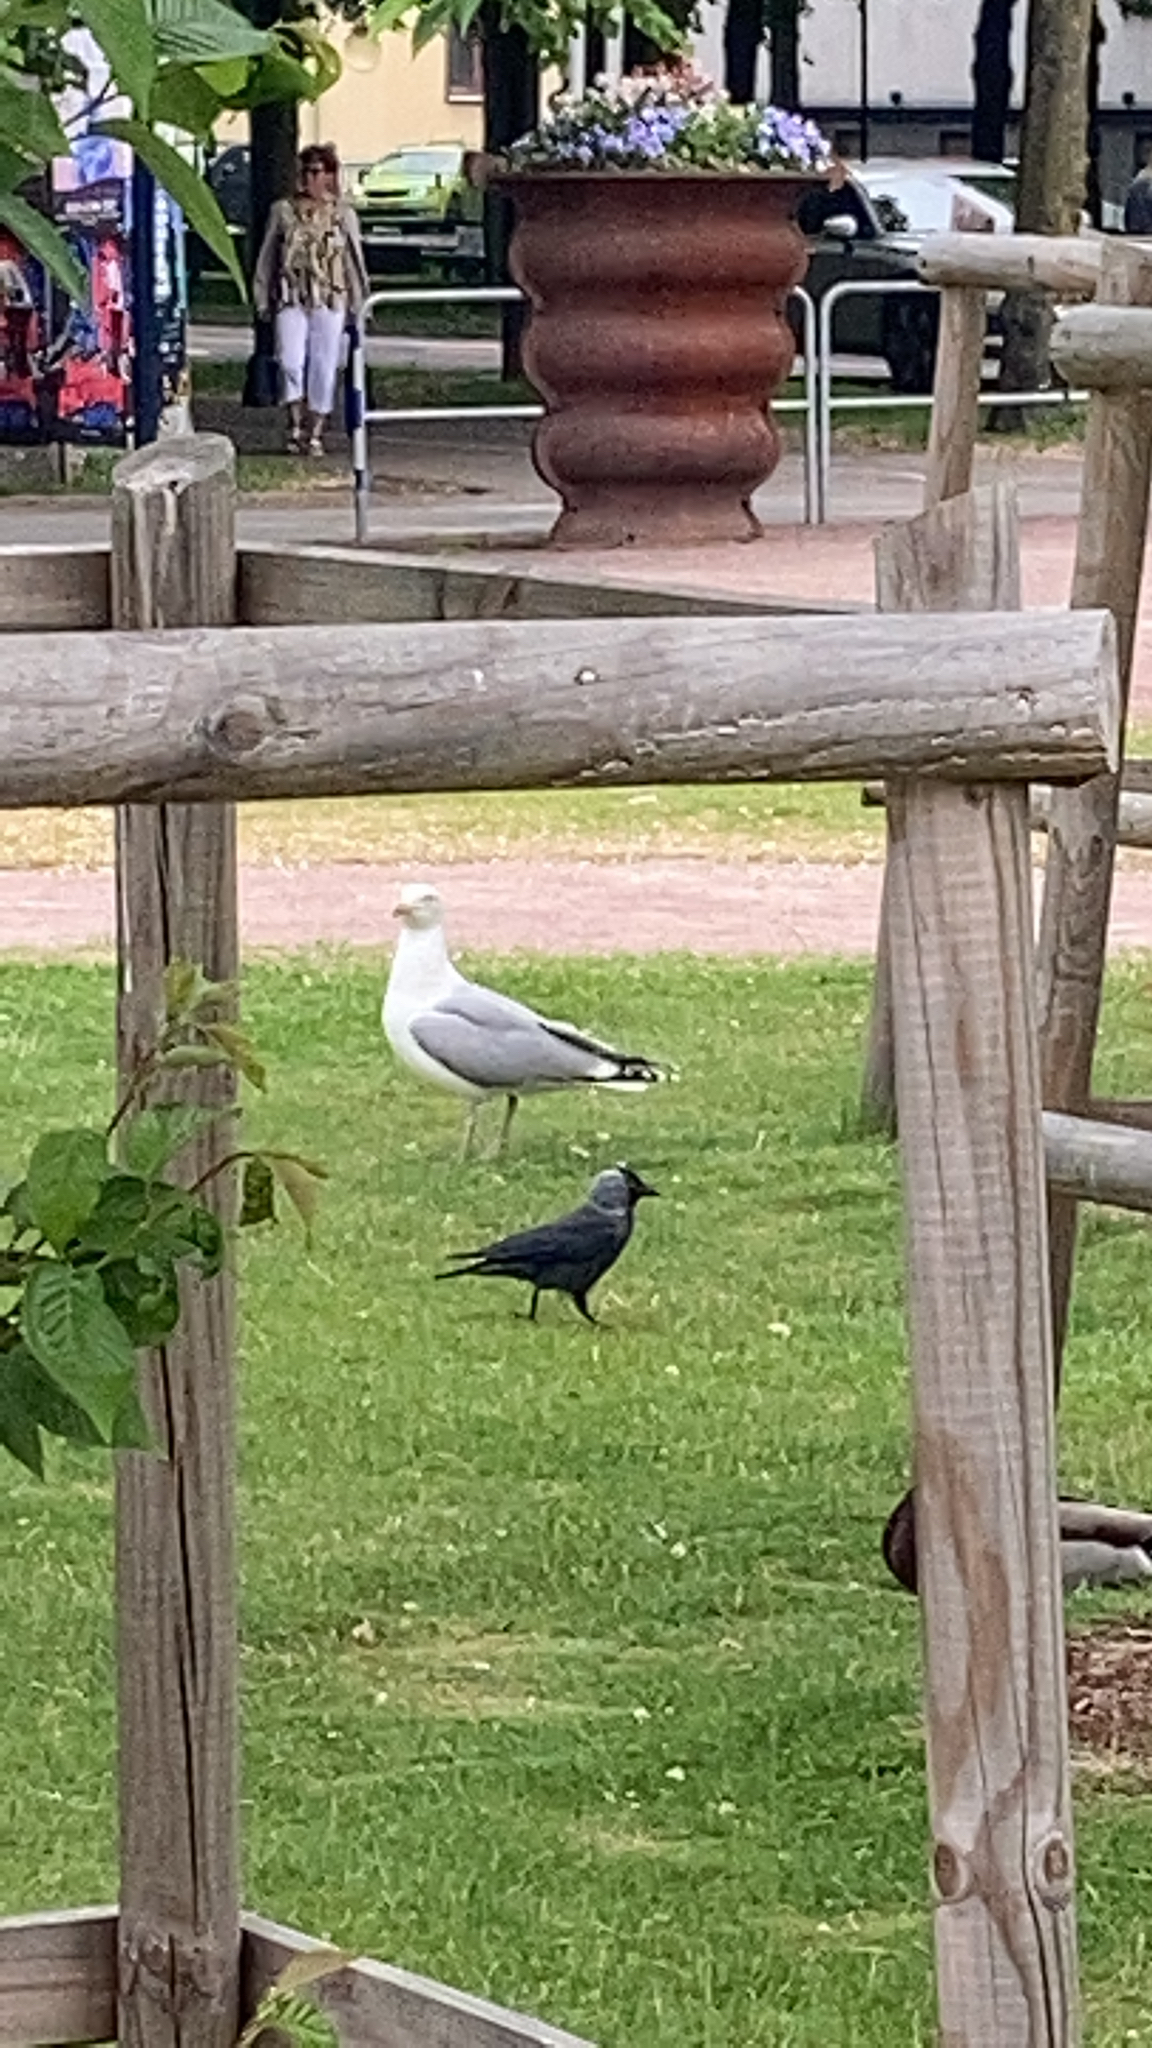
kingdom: Animalia
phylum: Chordata
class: Aves
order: Charadriiformes
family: Laridae
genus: Larus
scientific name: Larus argentatus
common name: Herring gull
